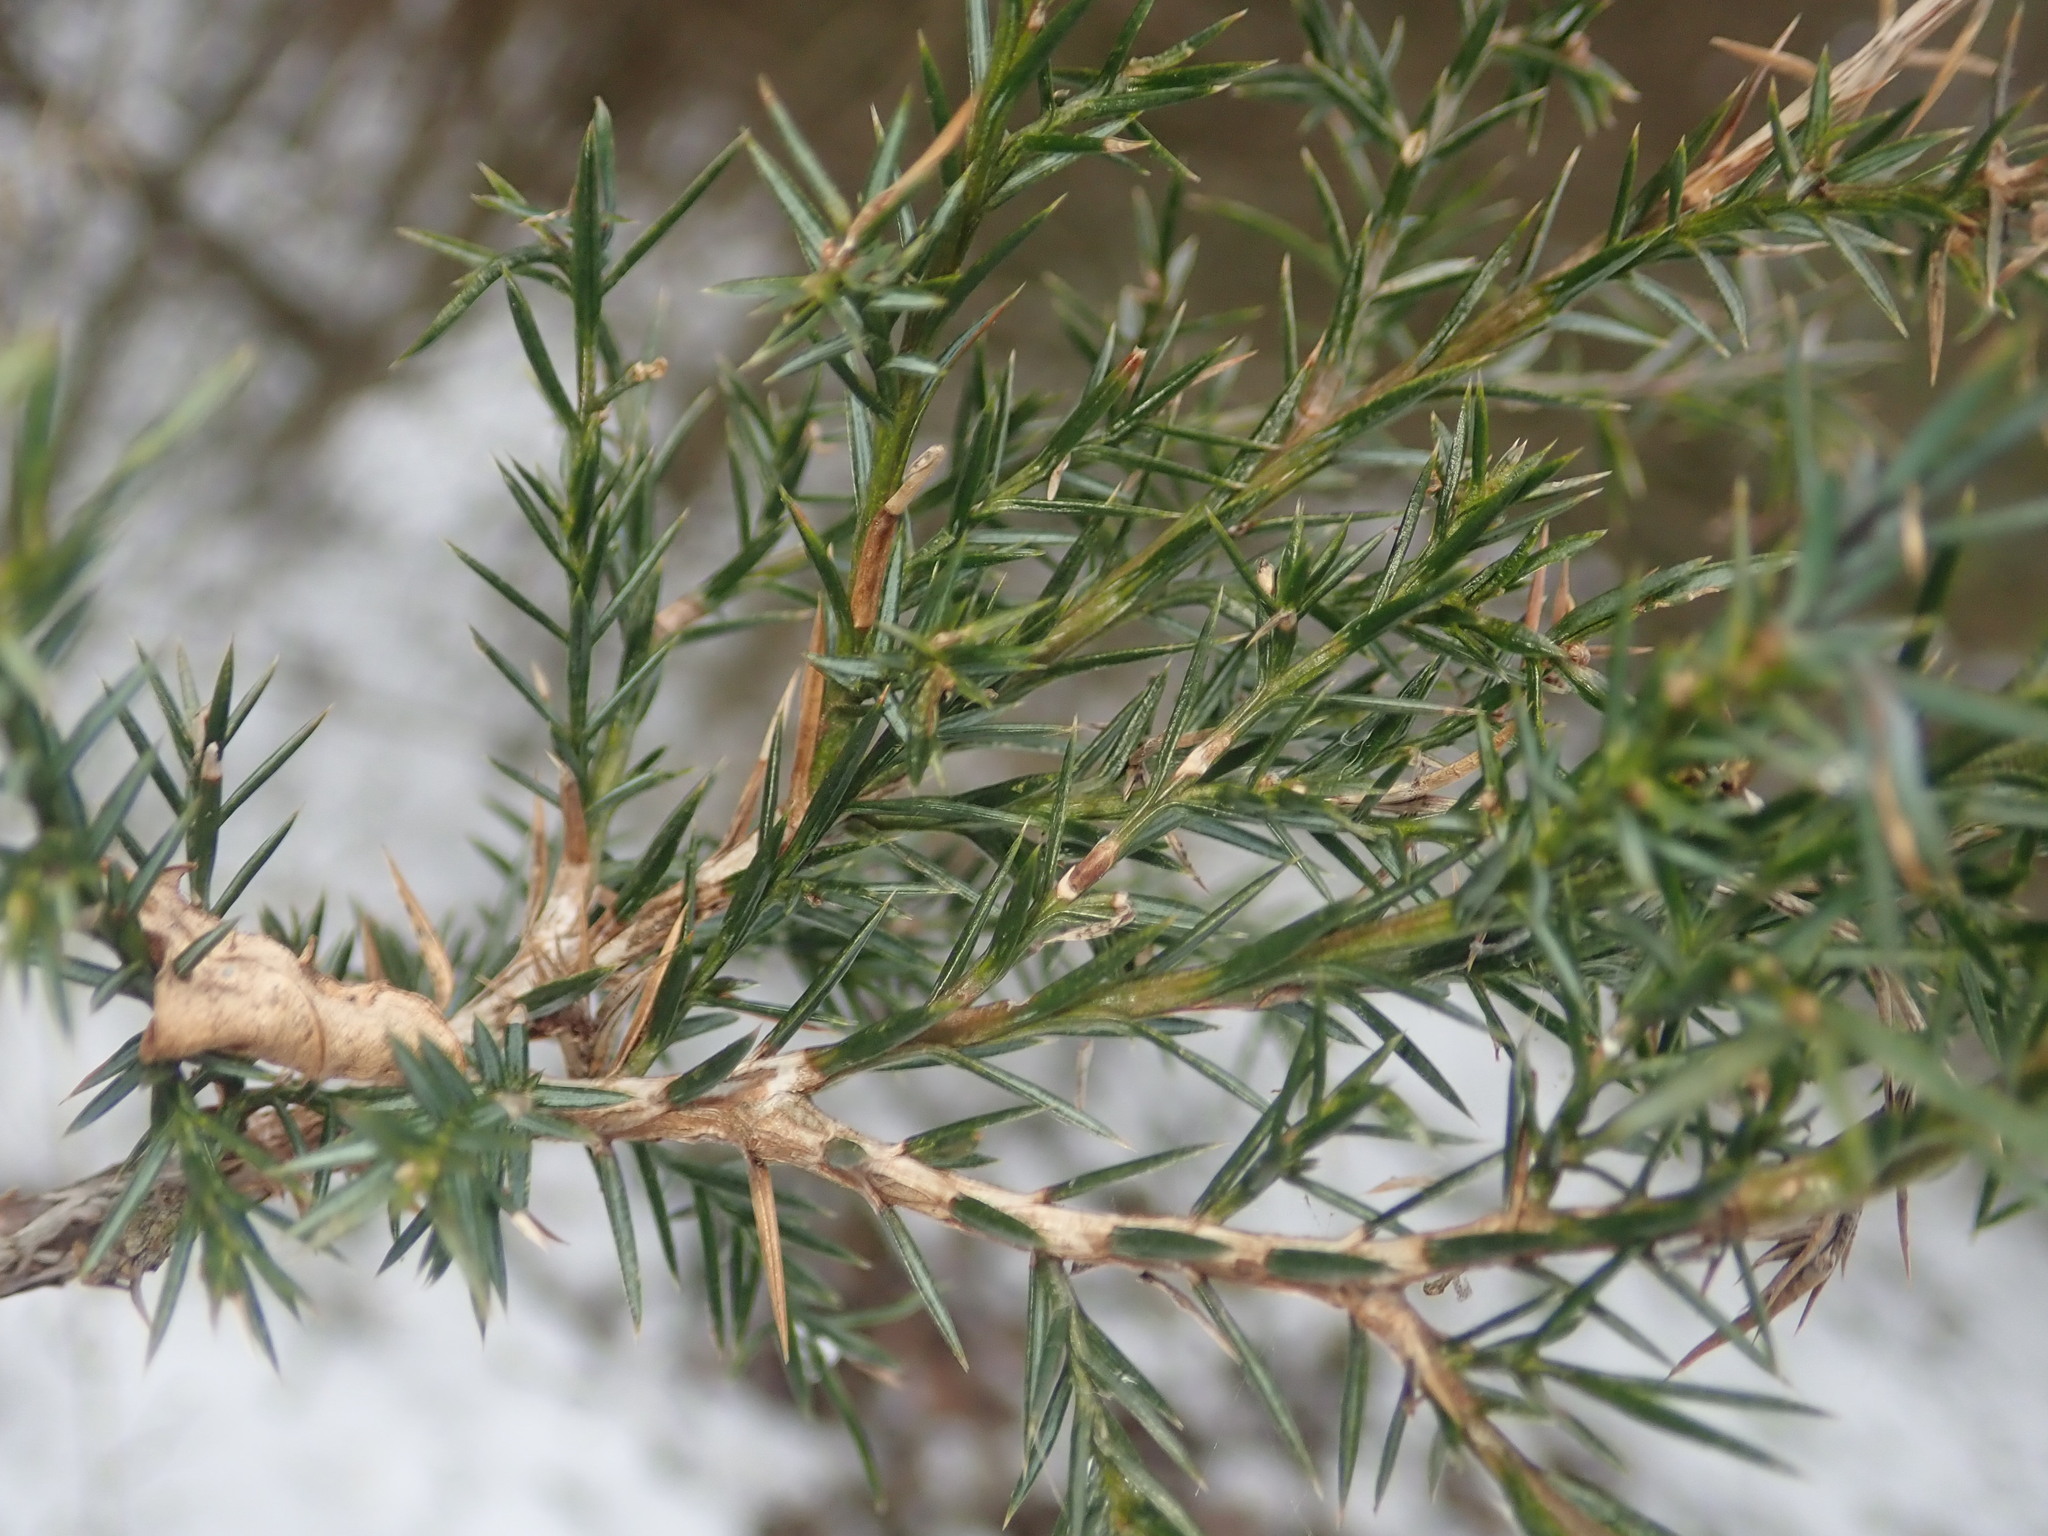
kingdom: Plantae
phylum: Tracheophyta
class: Pinopsida
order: Pinales
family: Cupressaceae
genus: Juniperus
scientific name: Juniperus virginiana
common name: Red juniper
